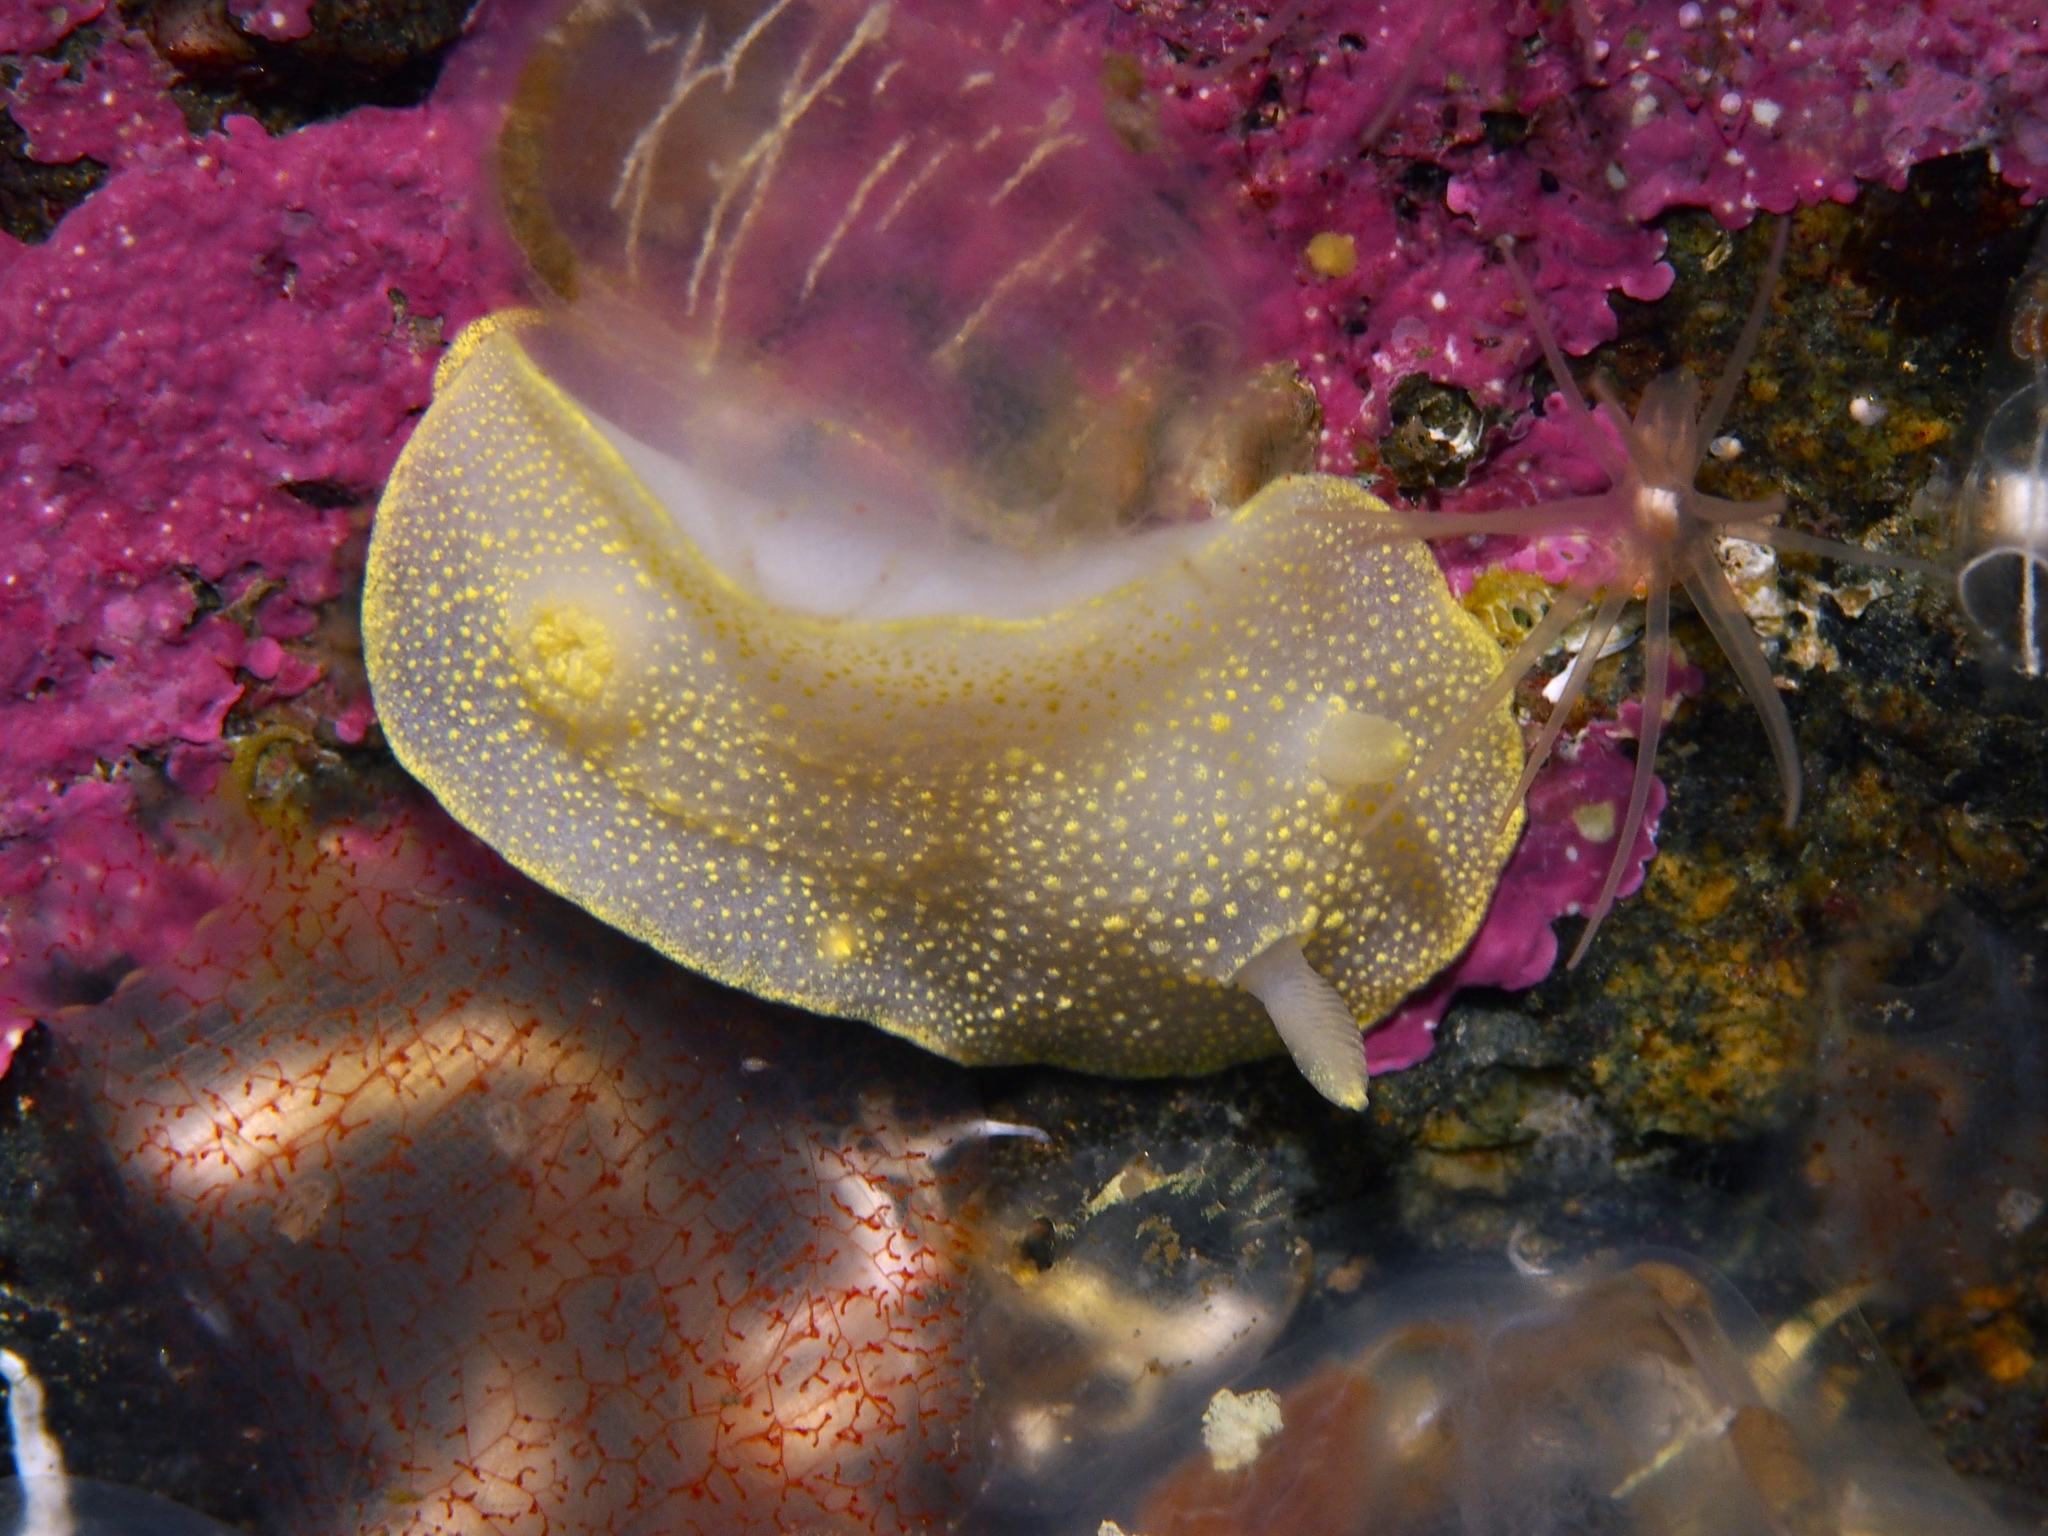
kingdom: Animalia
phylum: Mollusca
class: Gastropoda
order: Nudibranchia
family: Cadlinidae
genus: Cadlina
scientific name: Cadlina laevis
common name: White atlantic cadlina
